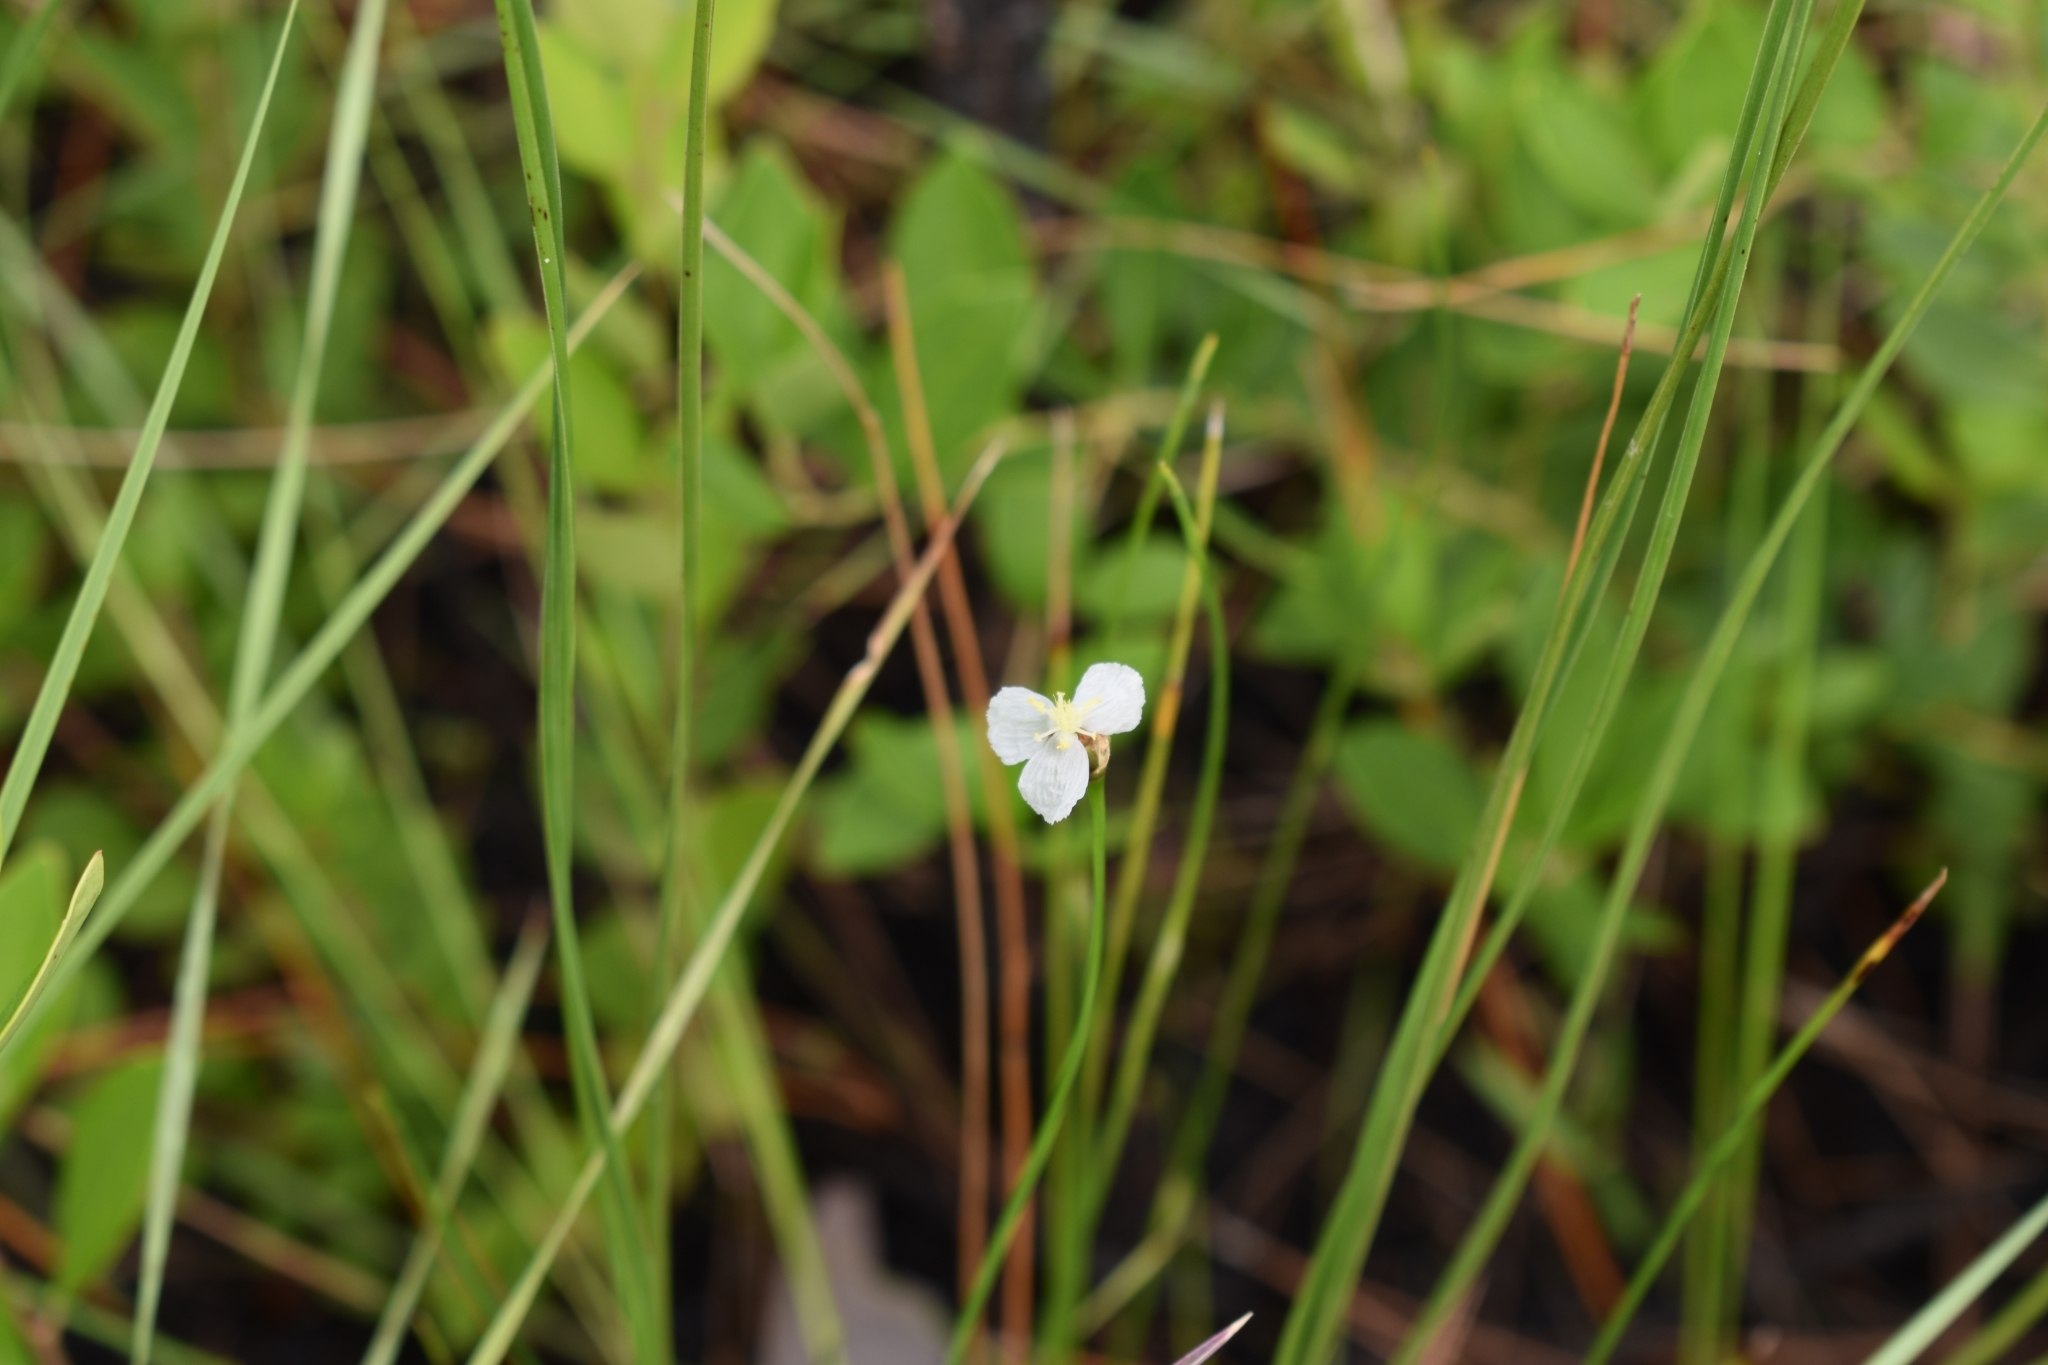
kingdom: Plantae
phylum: Tracheophyta
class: Liliopsida
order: Poales
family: Xyridaceae
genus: Xyris
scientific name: Xyris caroliniana
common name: Carolina yellow-eyed-grass
